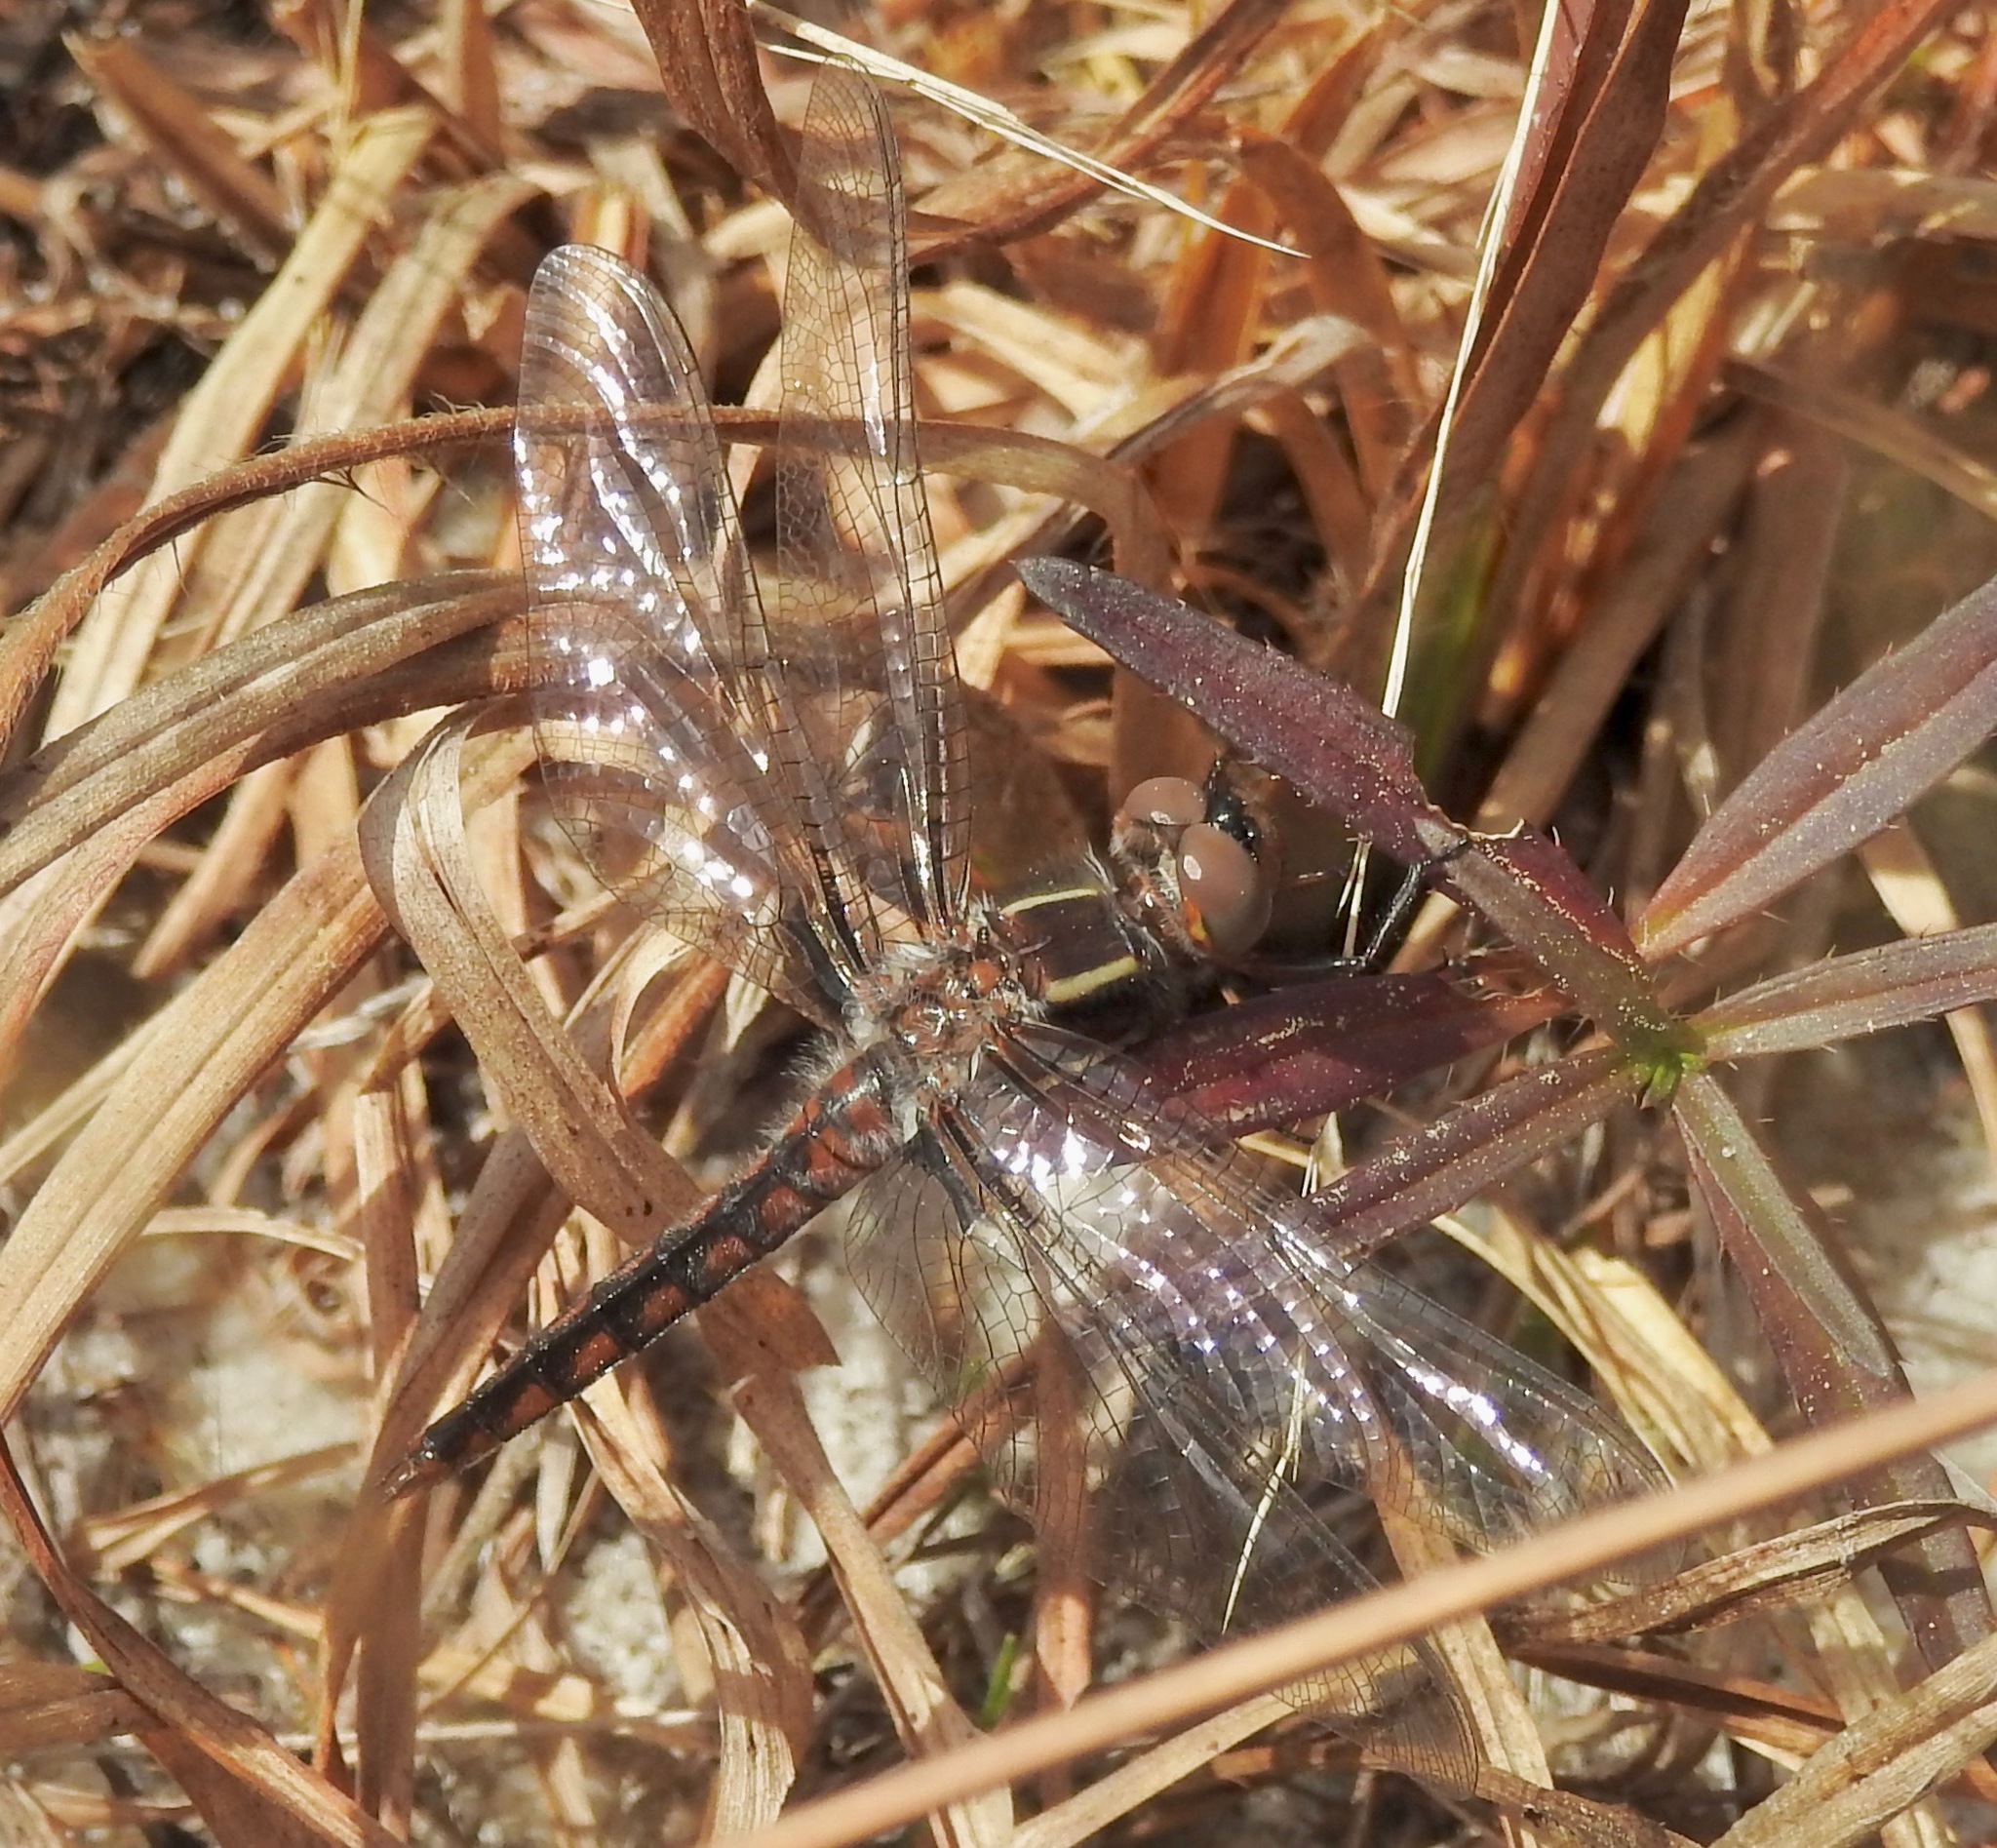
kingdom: Animalia
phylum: Arthropoda
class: Insecta
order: Odonata
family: Libellulidae
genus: Ladona
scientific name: Ladona deplanata
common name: Blue corporal
